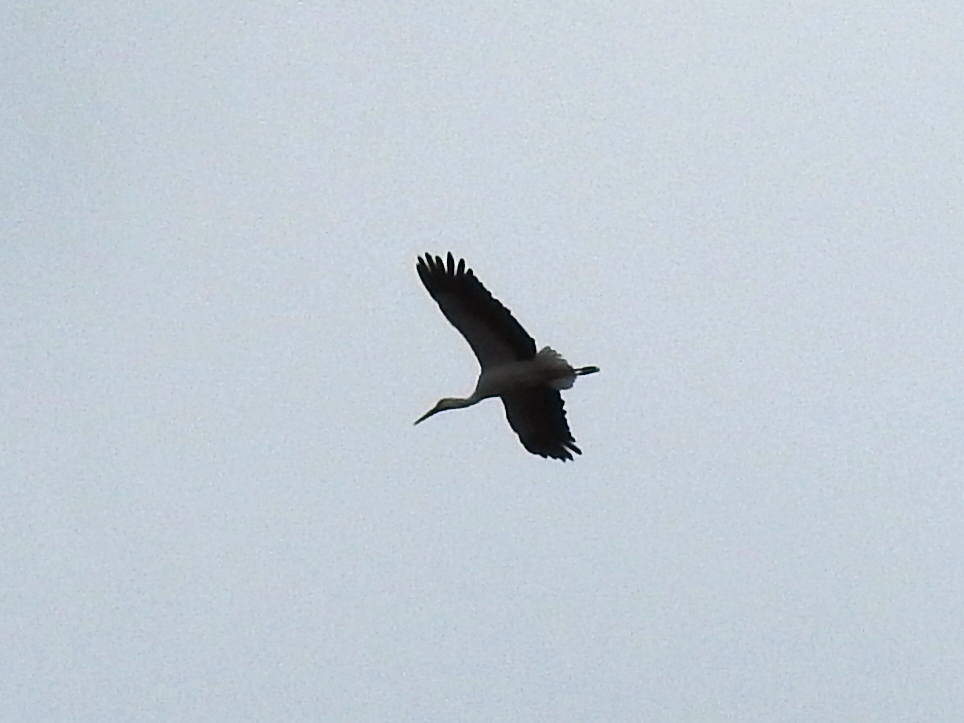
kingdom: Animalia
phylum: Chordata
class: Aves
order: Ciconiiformes
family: Ciconiidae
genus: Ciconia
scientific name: Ciconia ciconia
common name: White stork
